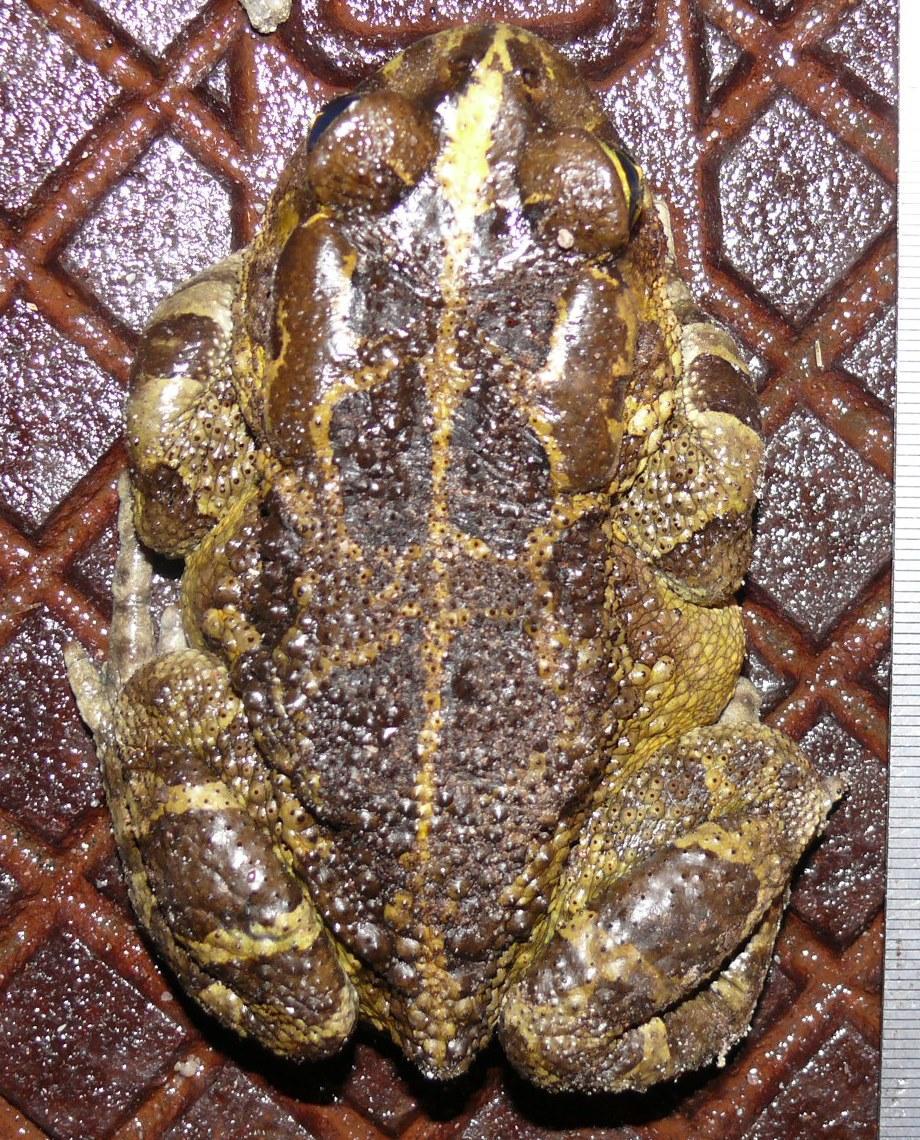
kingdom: Animalia
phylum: Chordata
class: Amphibia
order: Anura
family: Bufonidae
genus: Sclerophrys
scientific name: Sclerophrys pantherina
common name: Panther toad
